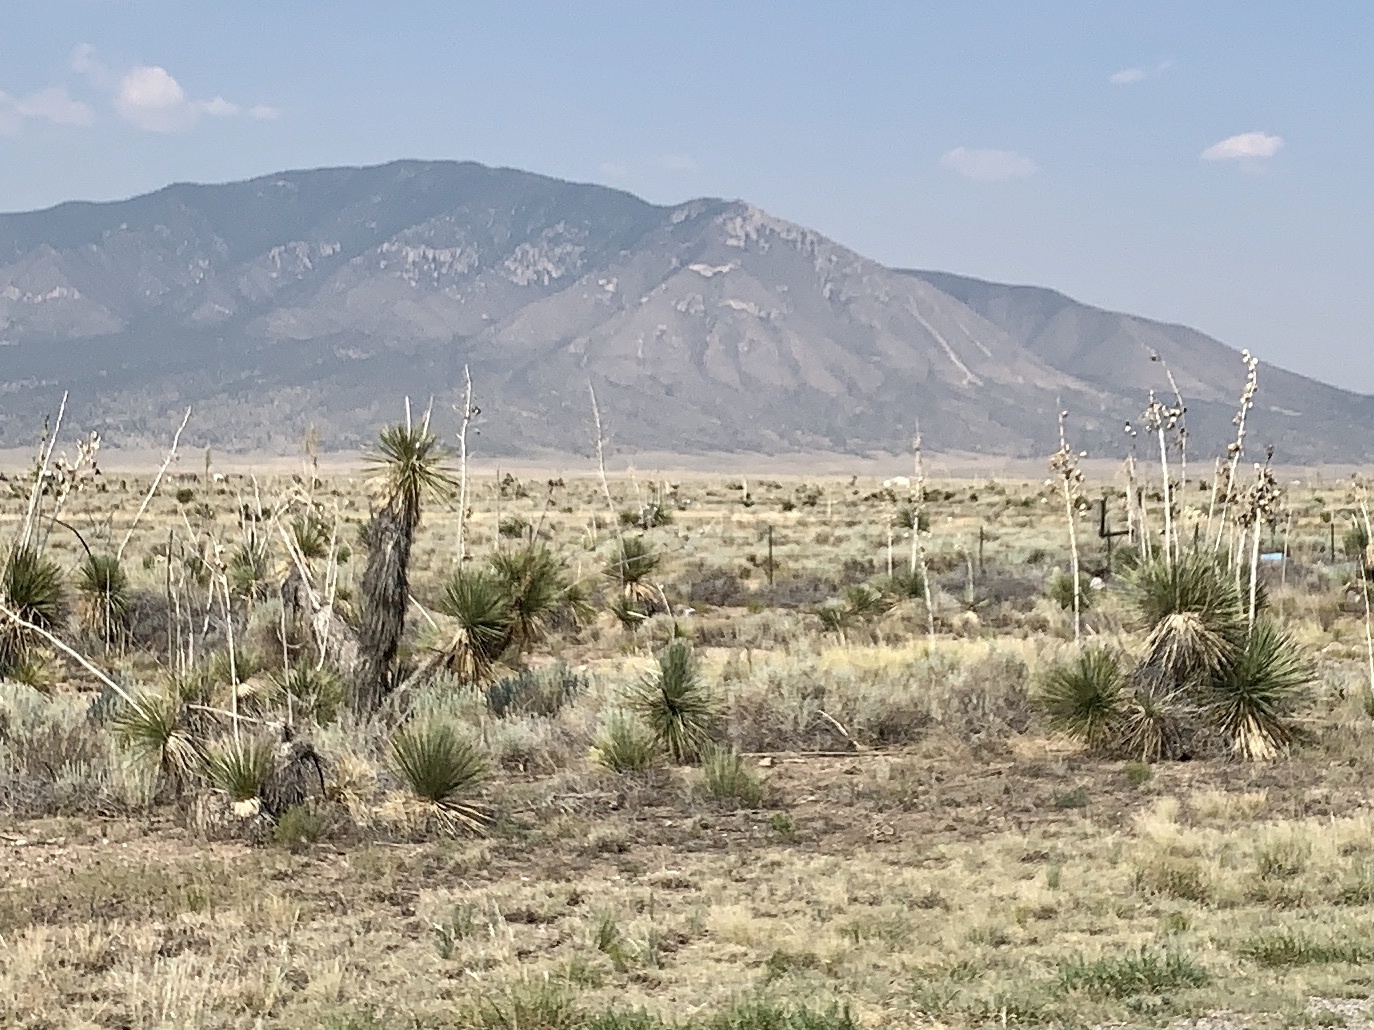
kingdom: Plantae
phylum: Tracheophyta
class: Liliopsida
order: Asparagales
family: Asparagaceae
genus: Yucca
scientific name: Yucca elata
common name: Palmella
